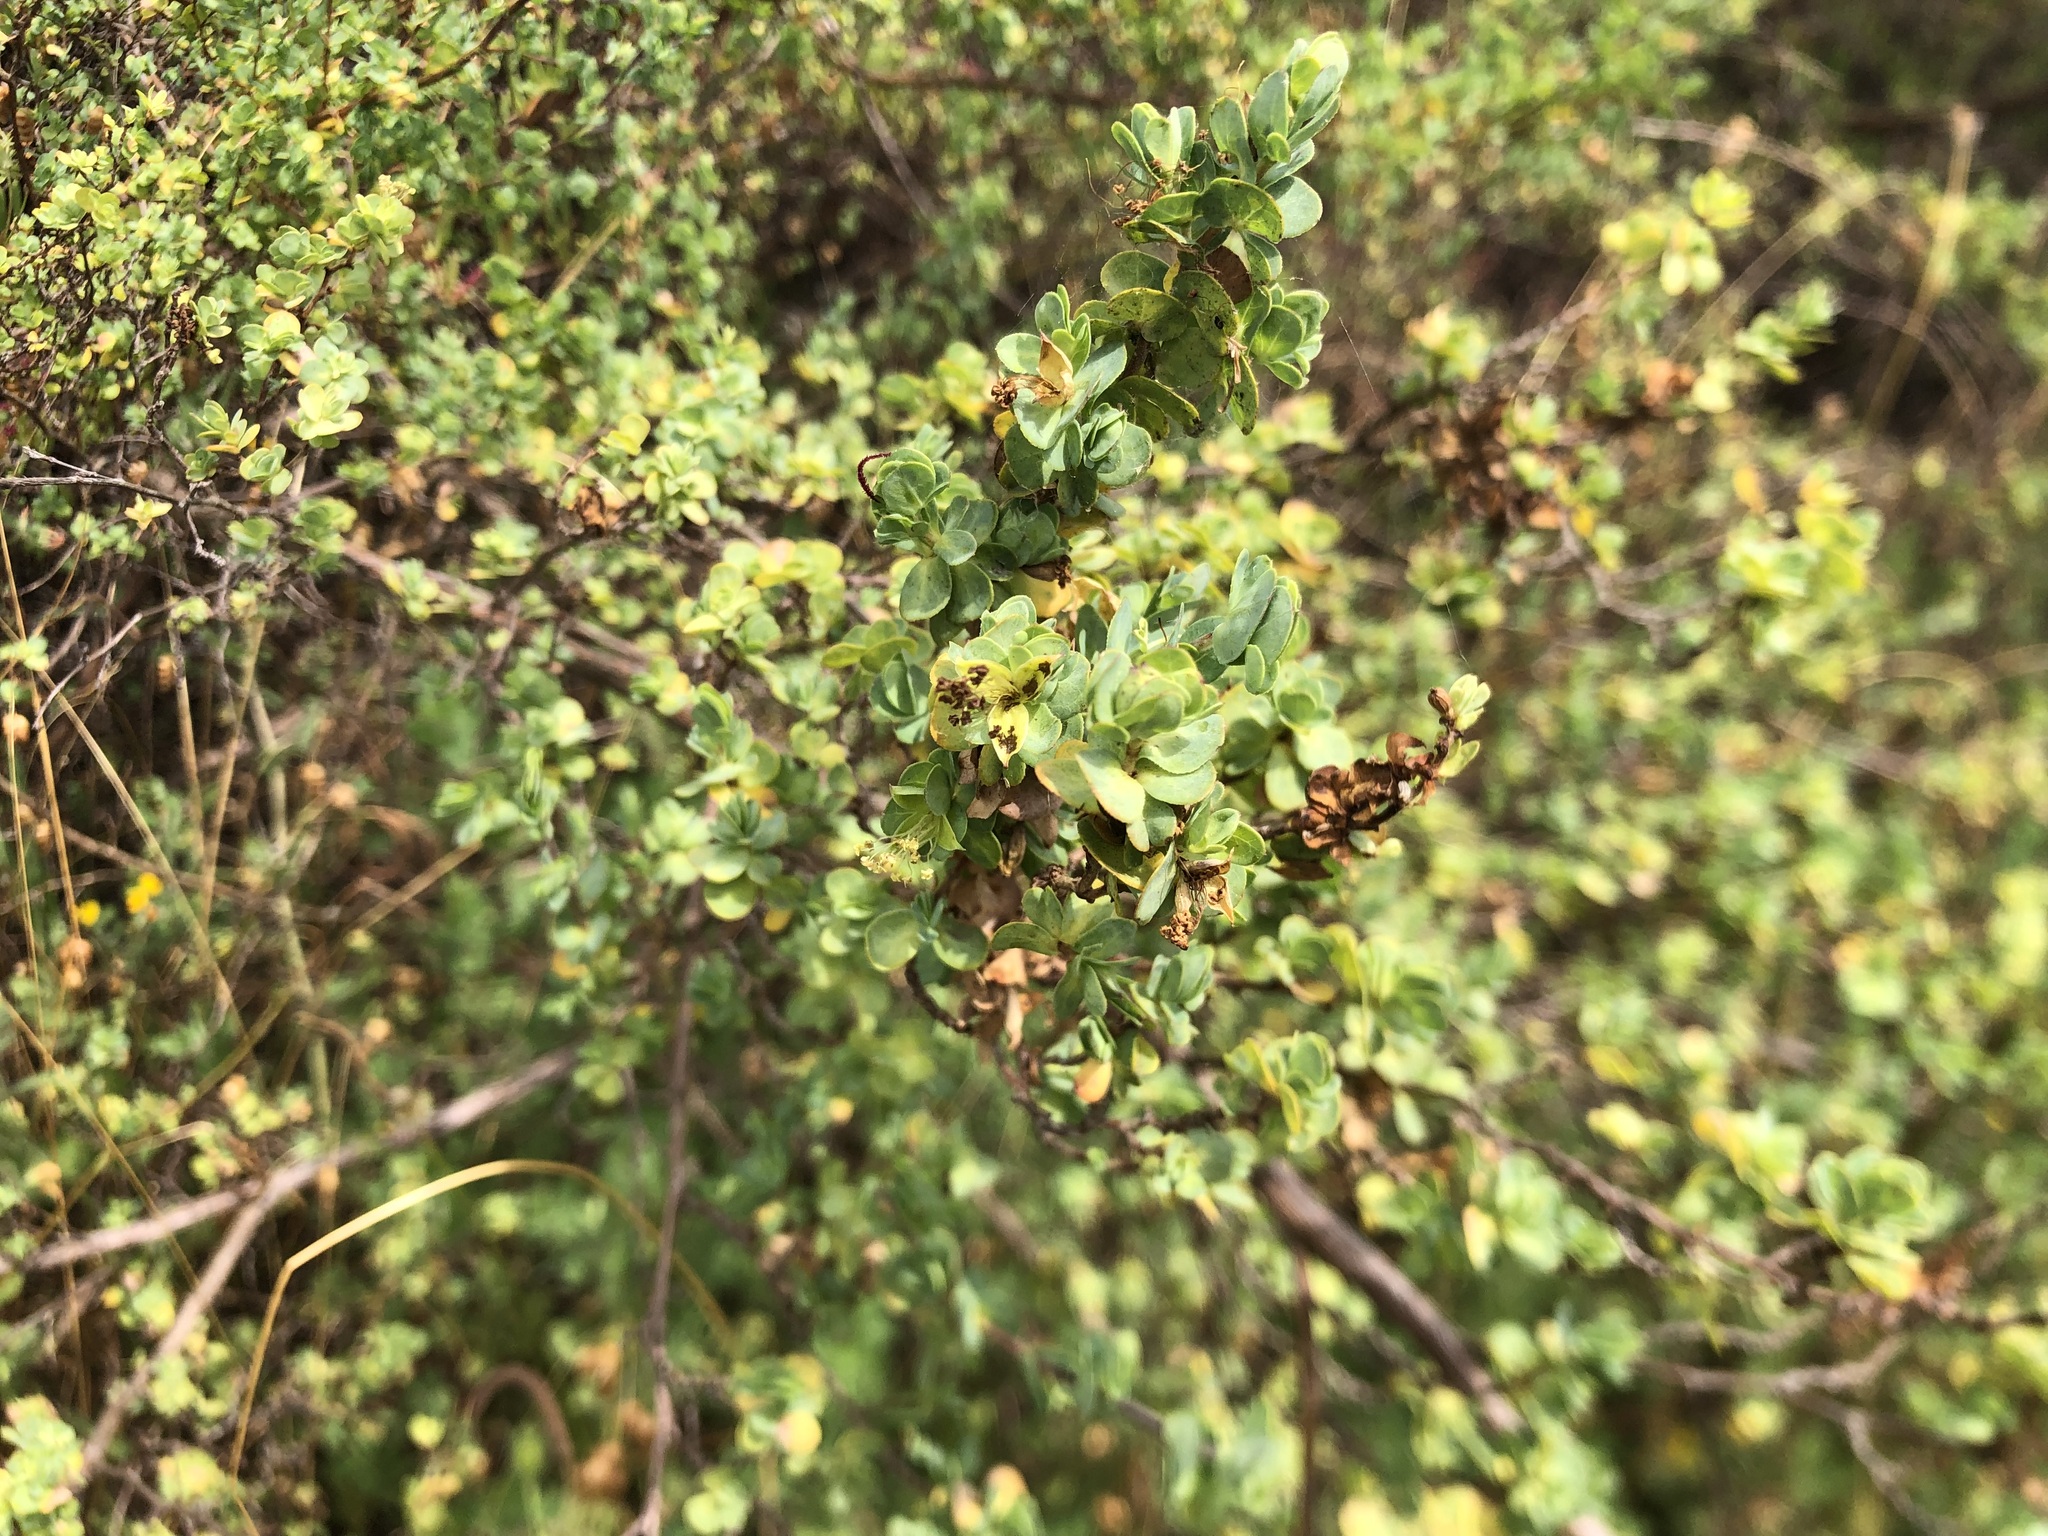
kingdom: Plantae
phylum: Tracheophyta
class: Magnoliopsida
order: Rosales
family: Rosaceae
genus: Cliffortia
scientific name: Cliffortia obcordata
